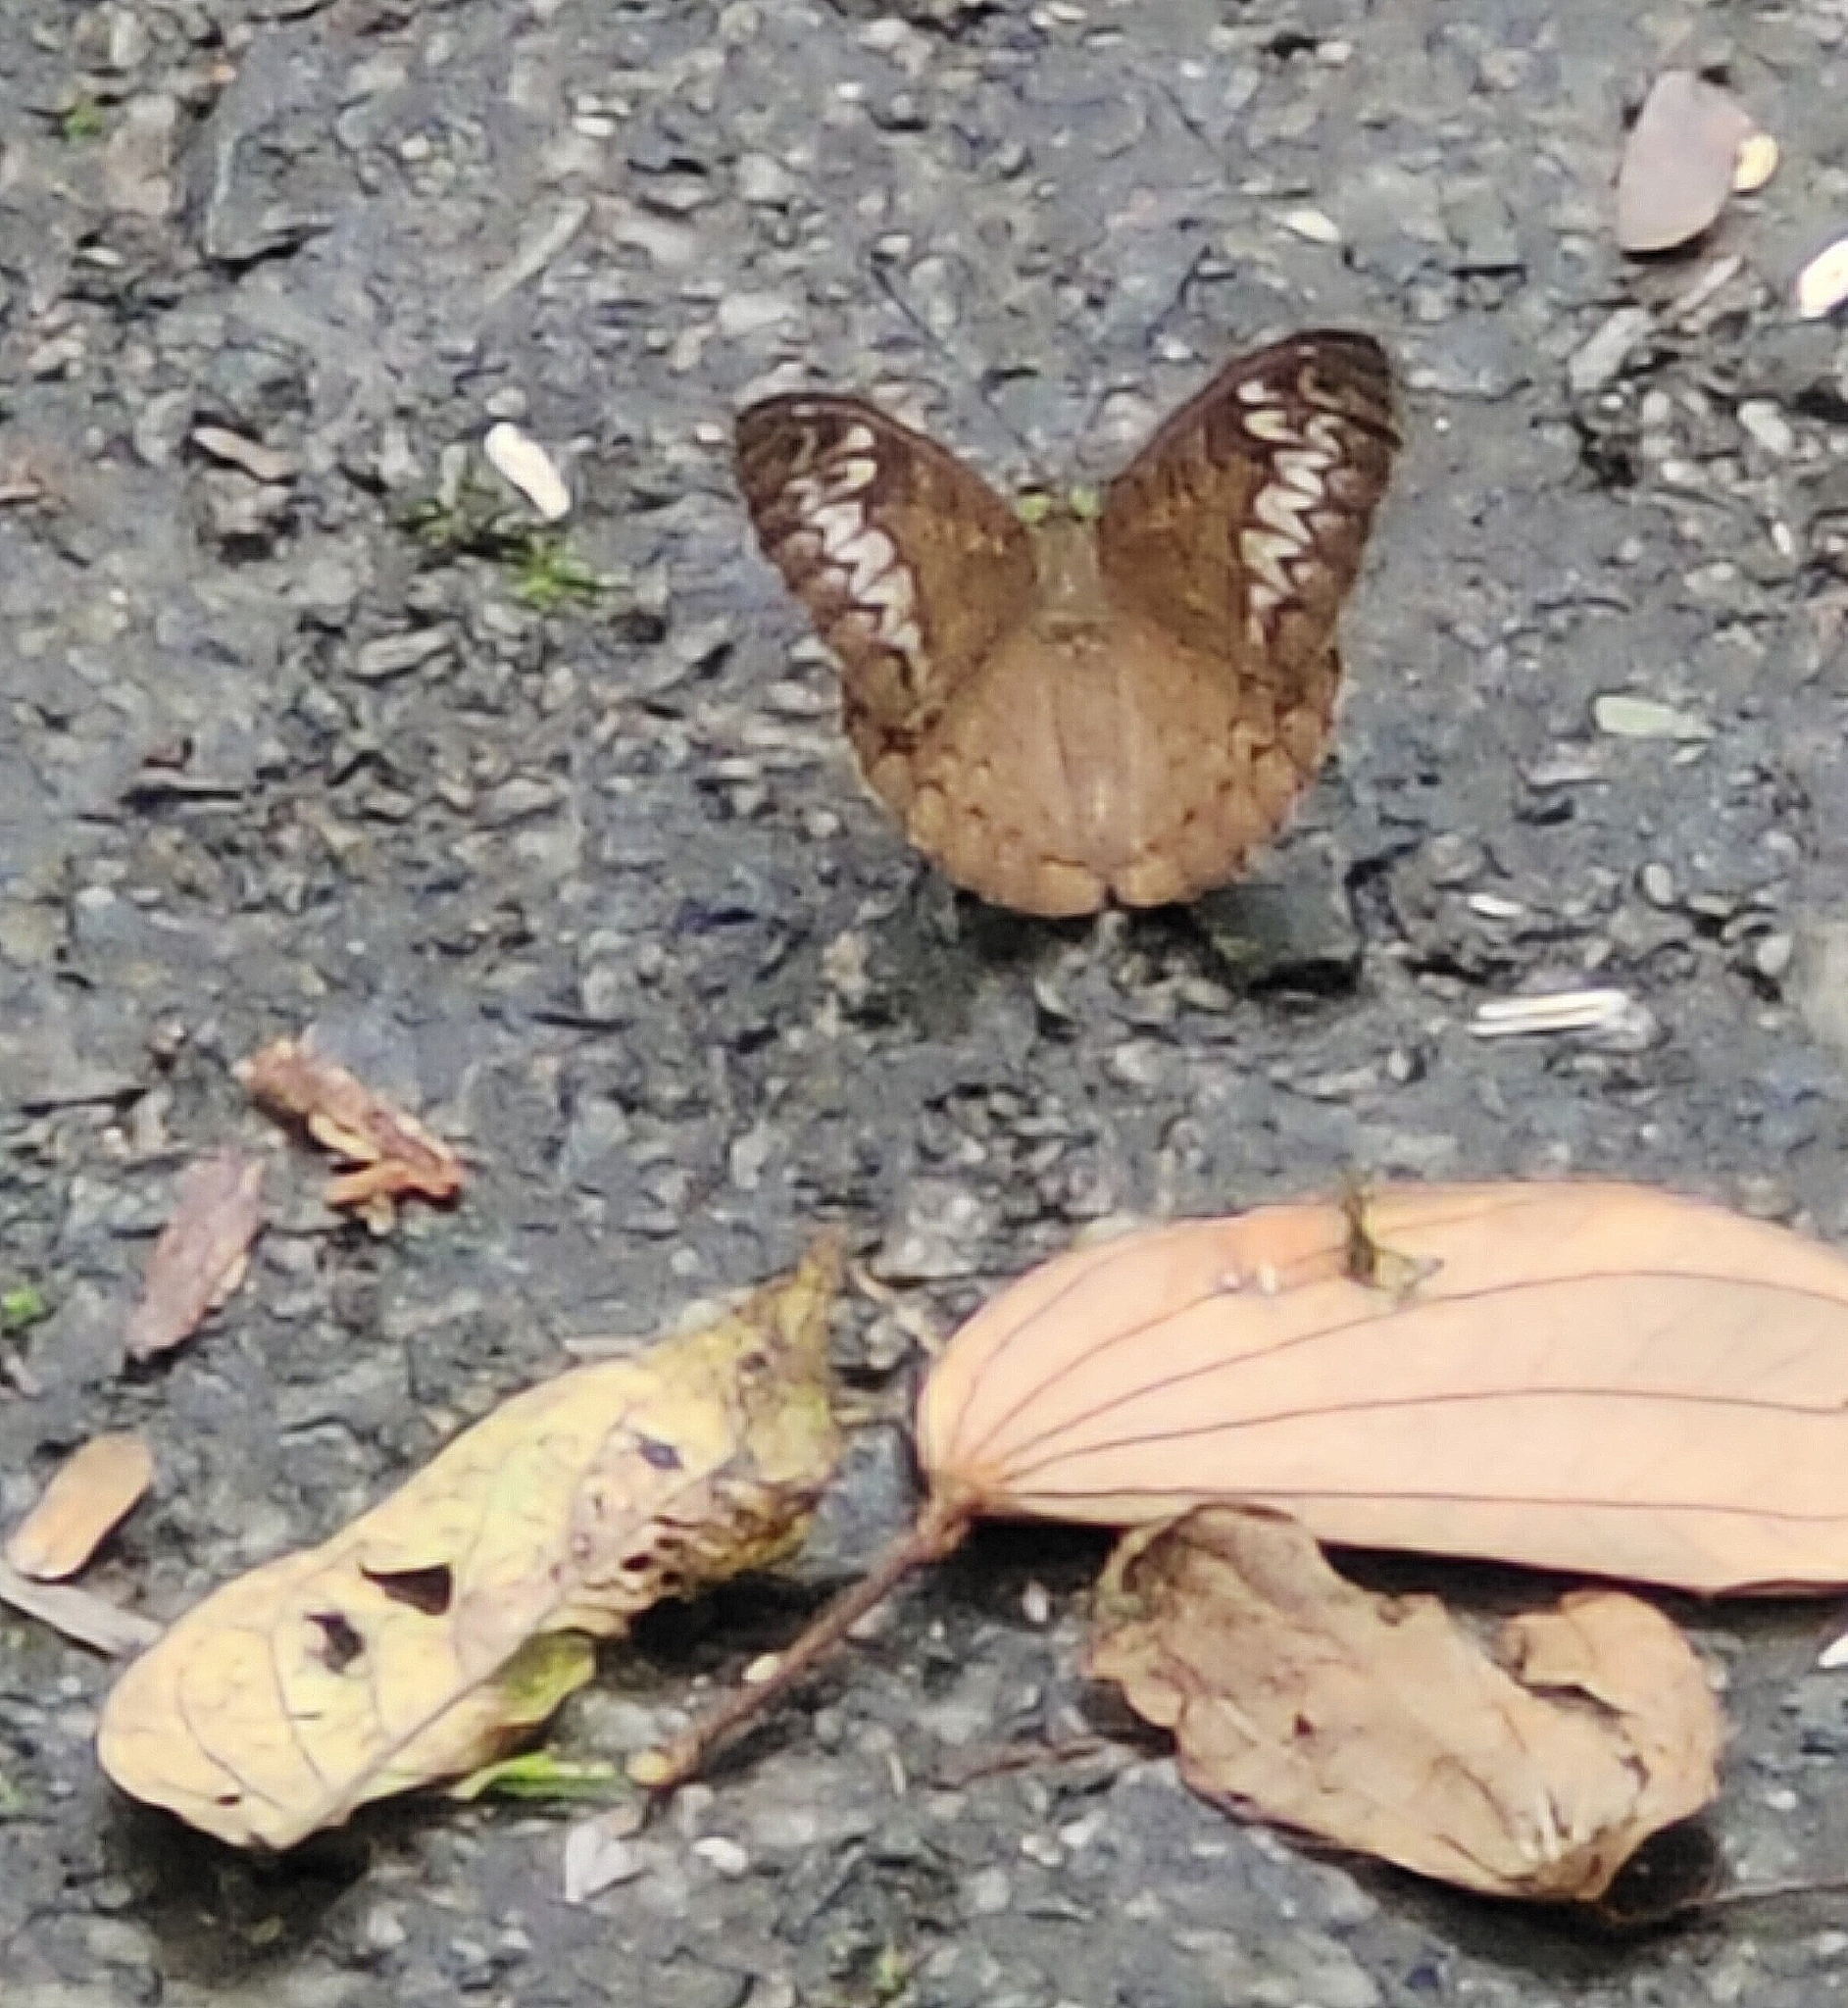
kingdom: Animalia
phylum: Arthropoda
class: Insecta
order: Lepidoptera
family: Nymphalidae
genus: Tanaecia
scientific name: Tanaecia pelea
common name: Malay viscount
